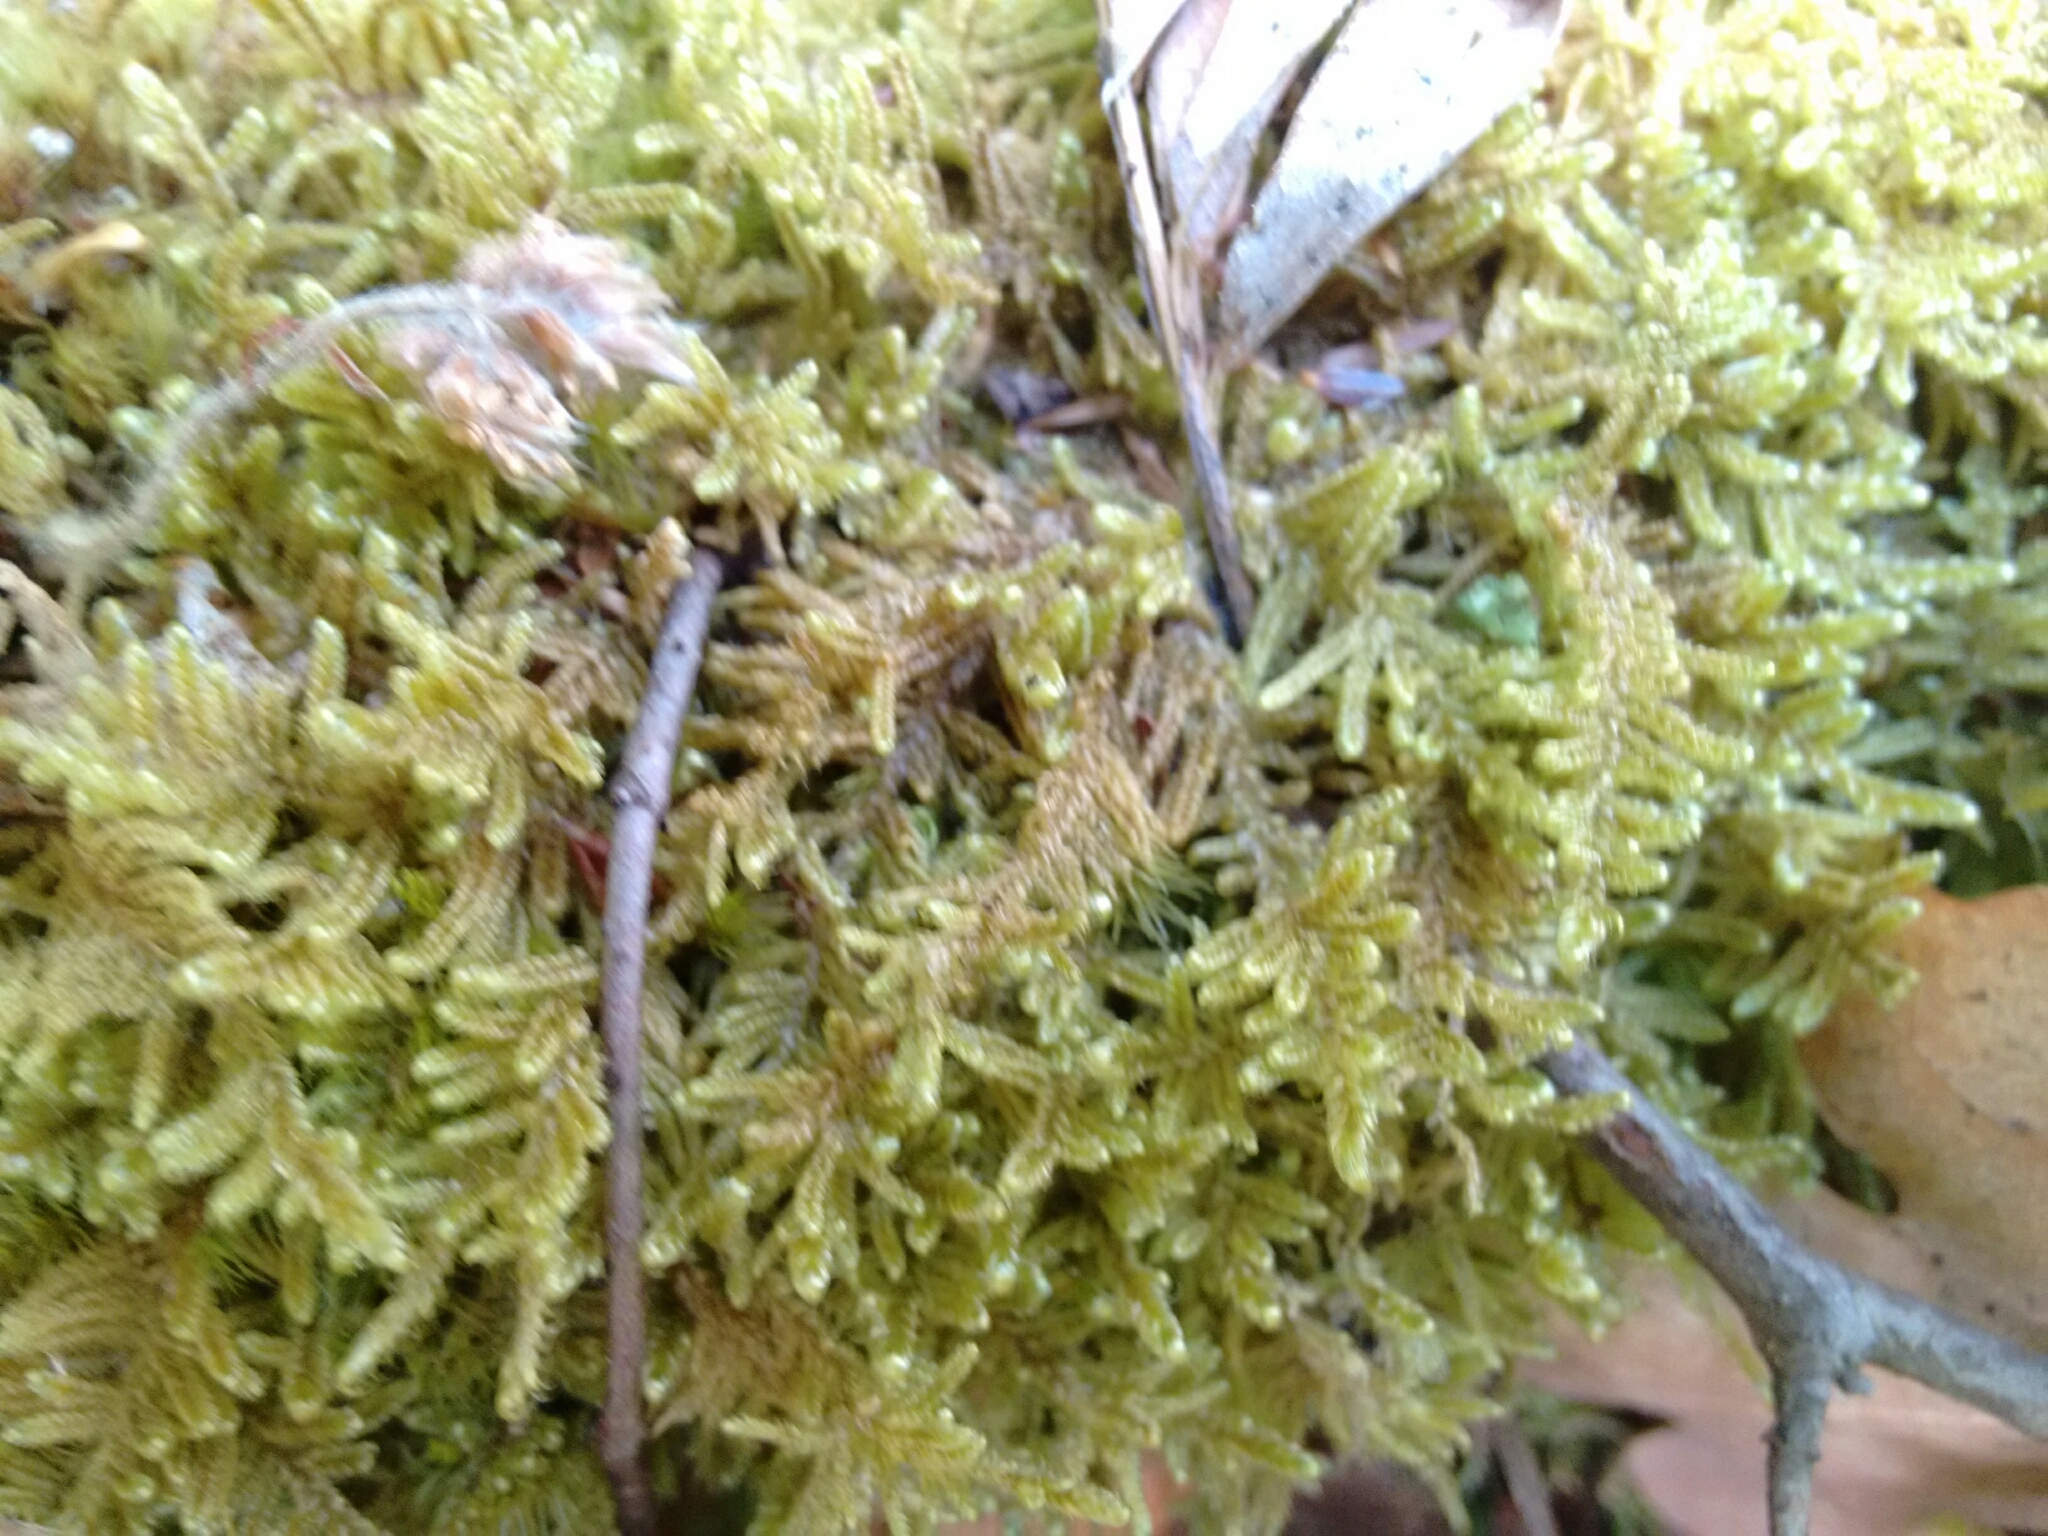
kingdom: Plantae
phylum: Bryophyta
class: Bryopsida
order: Hypnales
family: Callicladiaceae
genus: Callicladium
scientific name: Callicladium imponens
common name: Brocade moss
